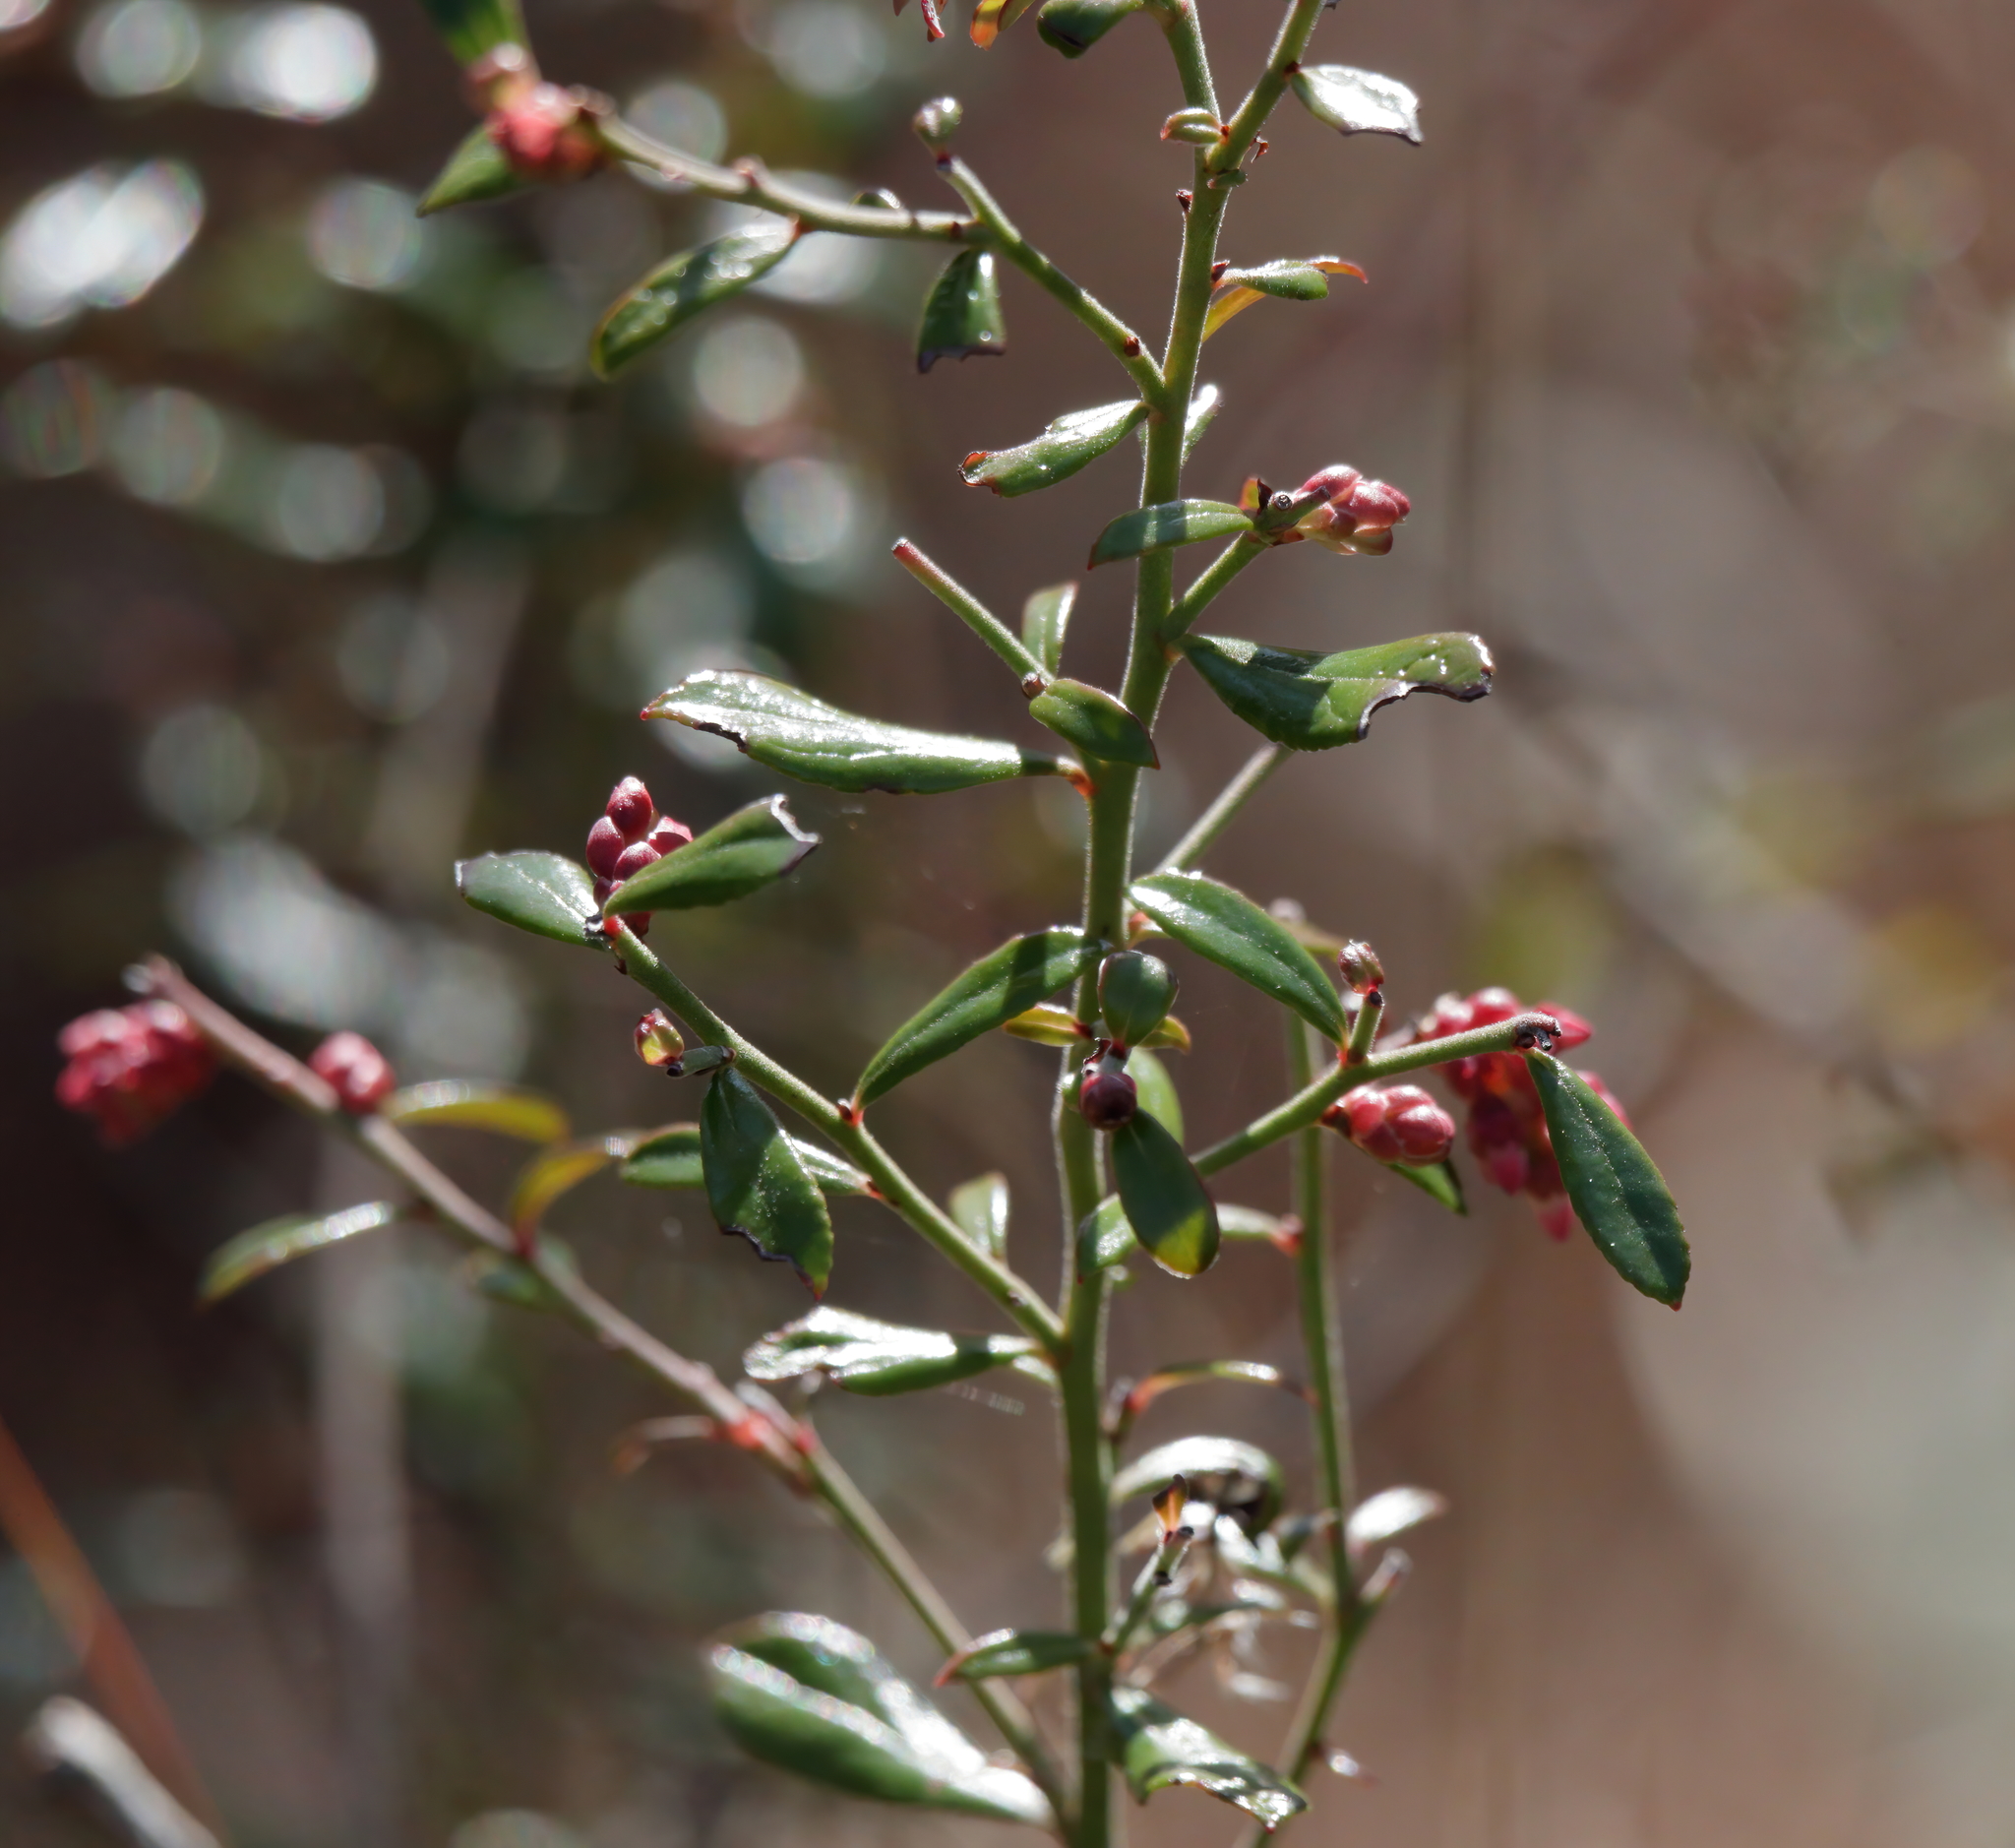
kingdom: Plantae
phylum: Tracheophyta
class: Magnoliopsida
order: Ericales
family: Ericaceae
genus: Vaccinium
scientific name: Vaccinium myrsinites
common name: Evergreen blueberry
